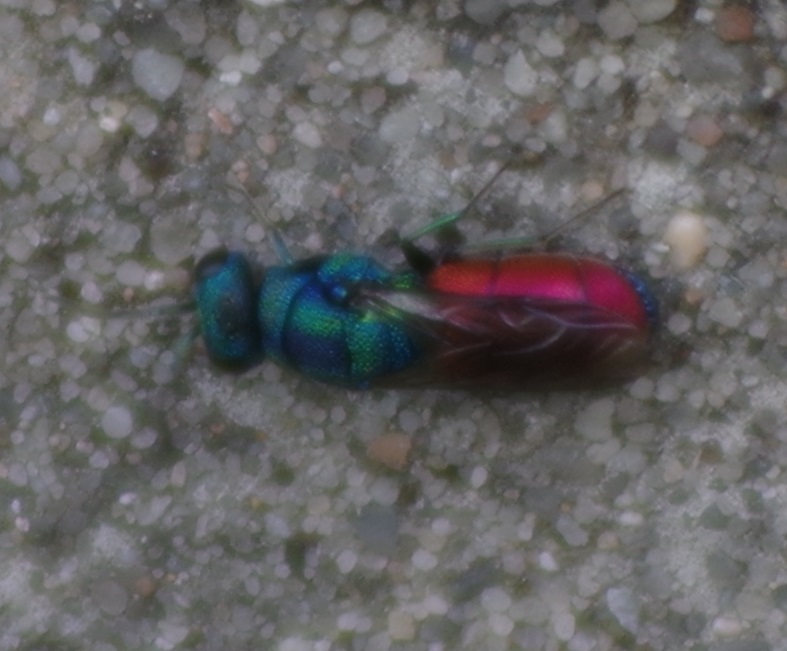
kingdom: Animalia
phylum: Arthropoda
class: Insecta
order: Hymenoptera
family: Chrysididae
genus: Chrysis
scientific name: Chrysis graelsii
